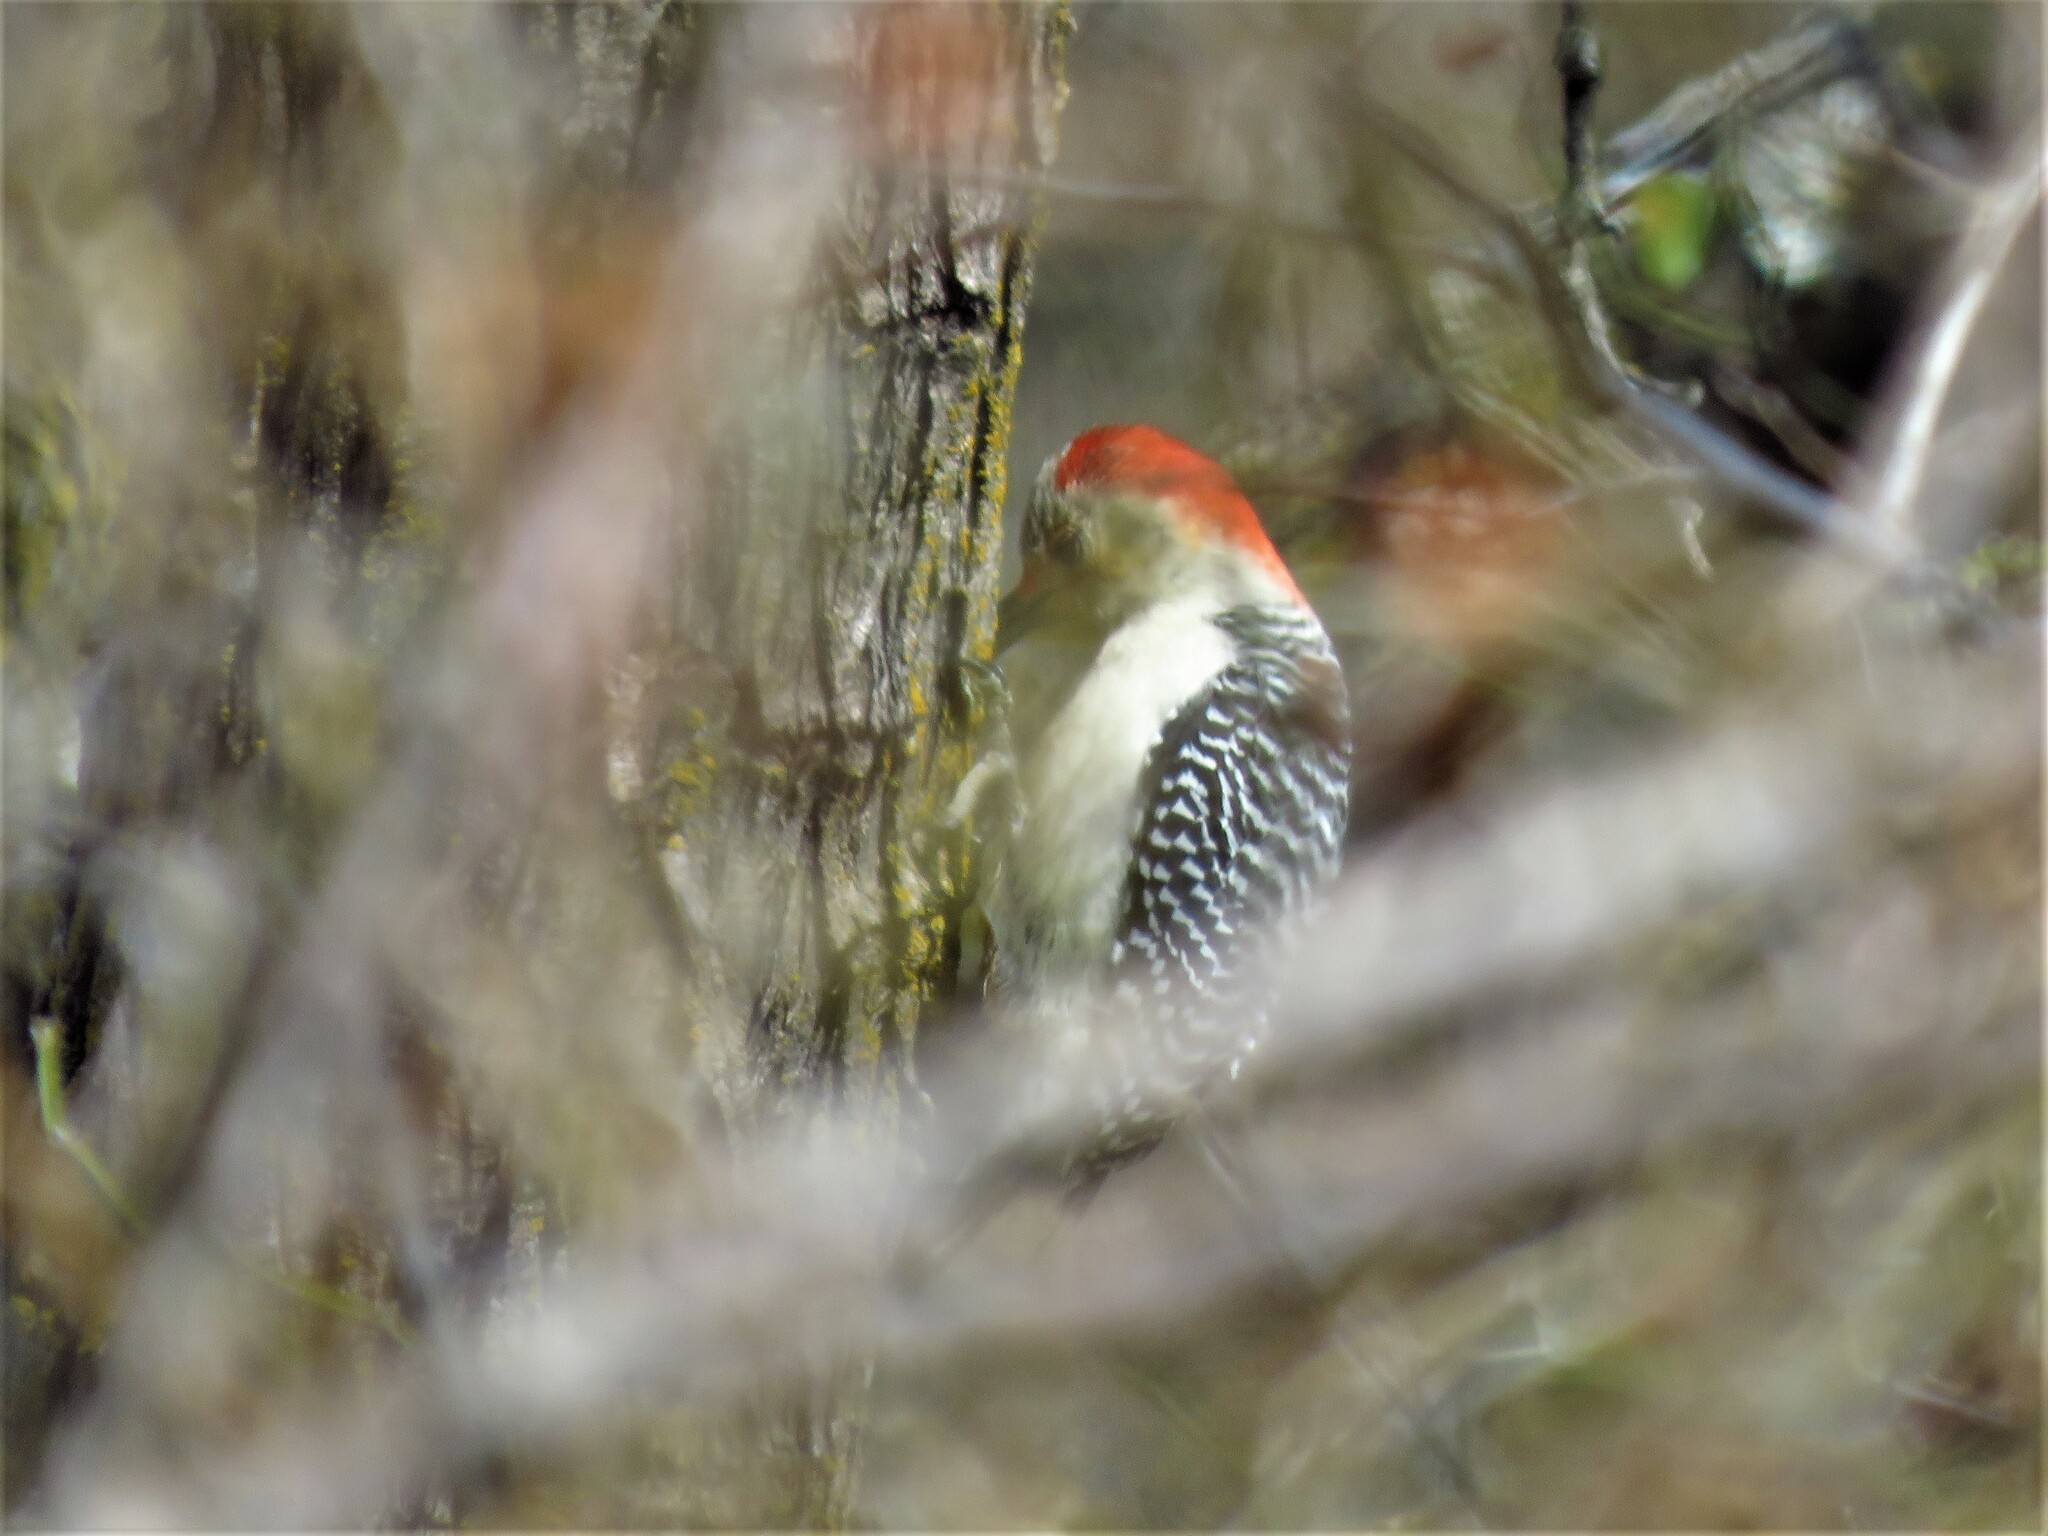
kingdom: Animalia
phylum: Chordata
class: Aves
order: Piciformes
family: Picidae
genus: Melanerpes
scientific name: Melanerpes carolinus
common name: Red-bellied woodpecker
